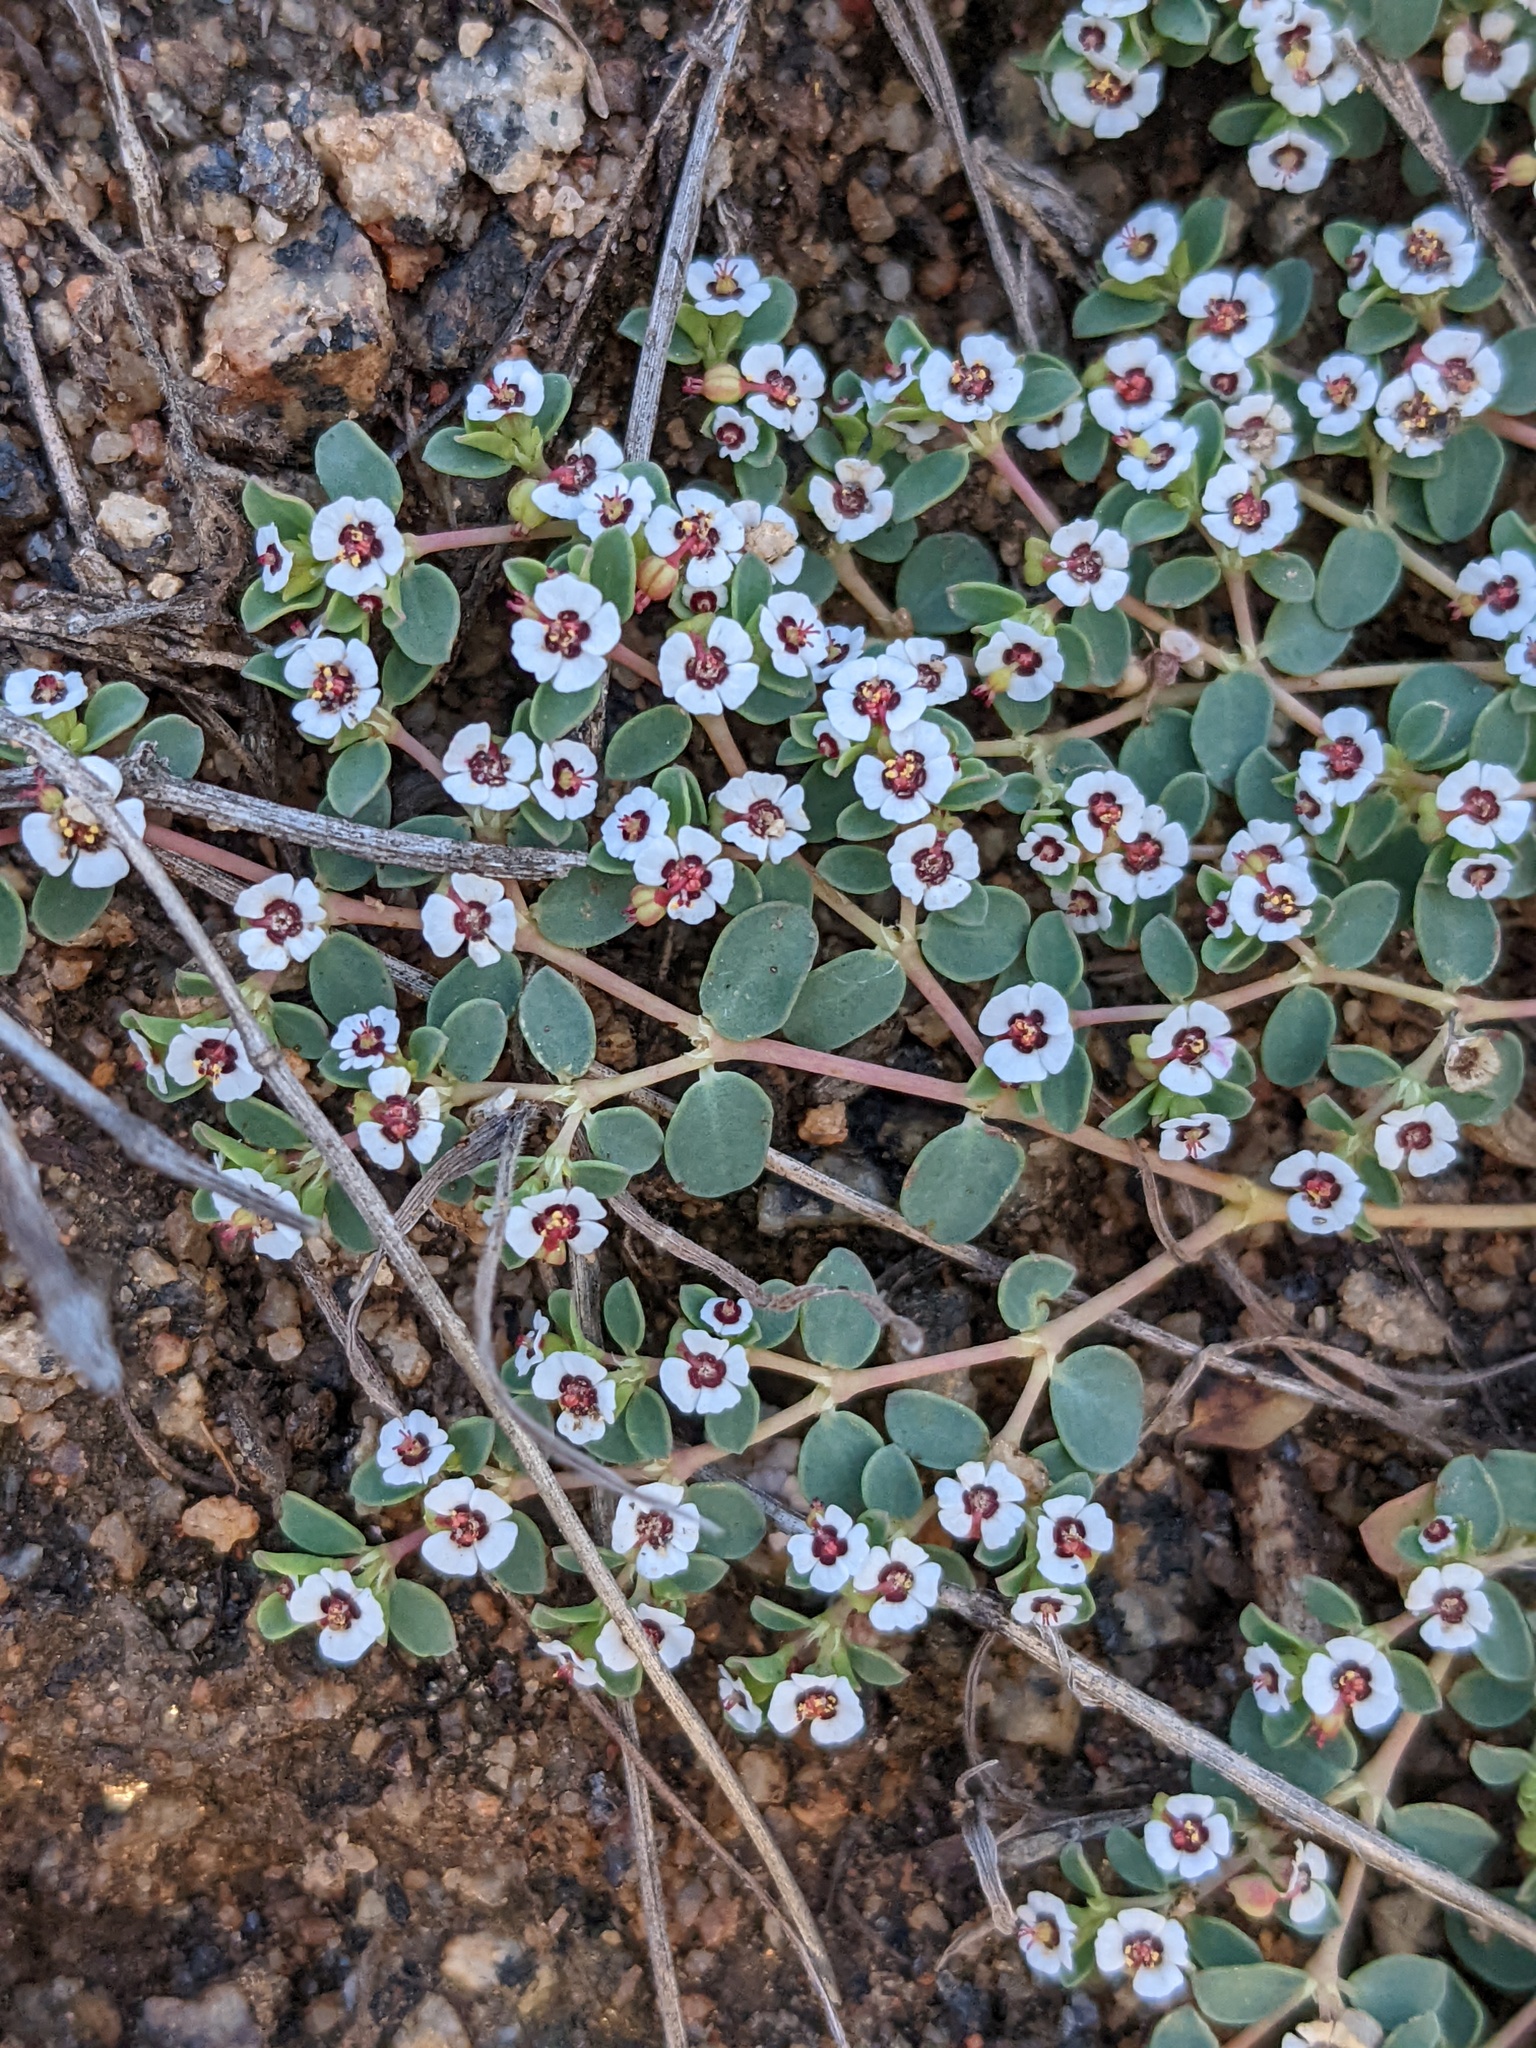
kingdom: Plantae
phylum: Tracheophyta
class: Magnoliopsida
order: Malpighiales
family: Euphorbiaceae
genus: Euphorbia
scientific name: Euphorbia polycarpa
